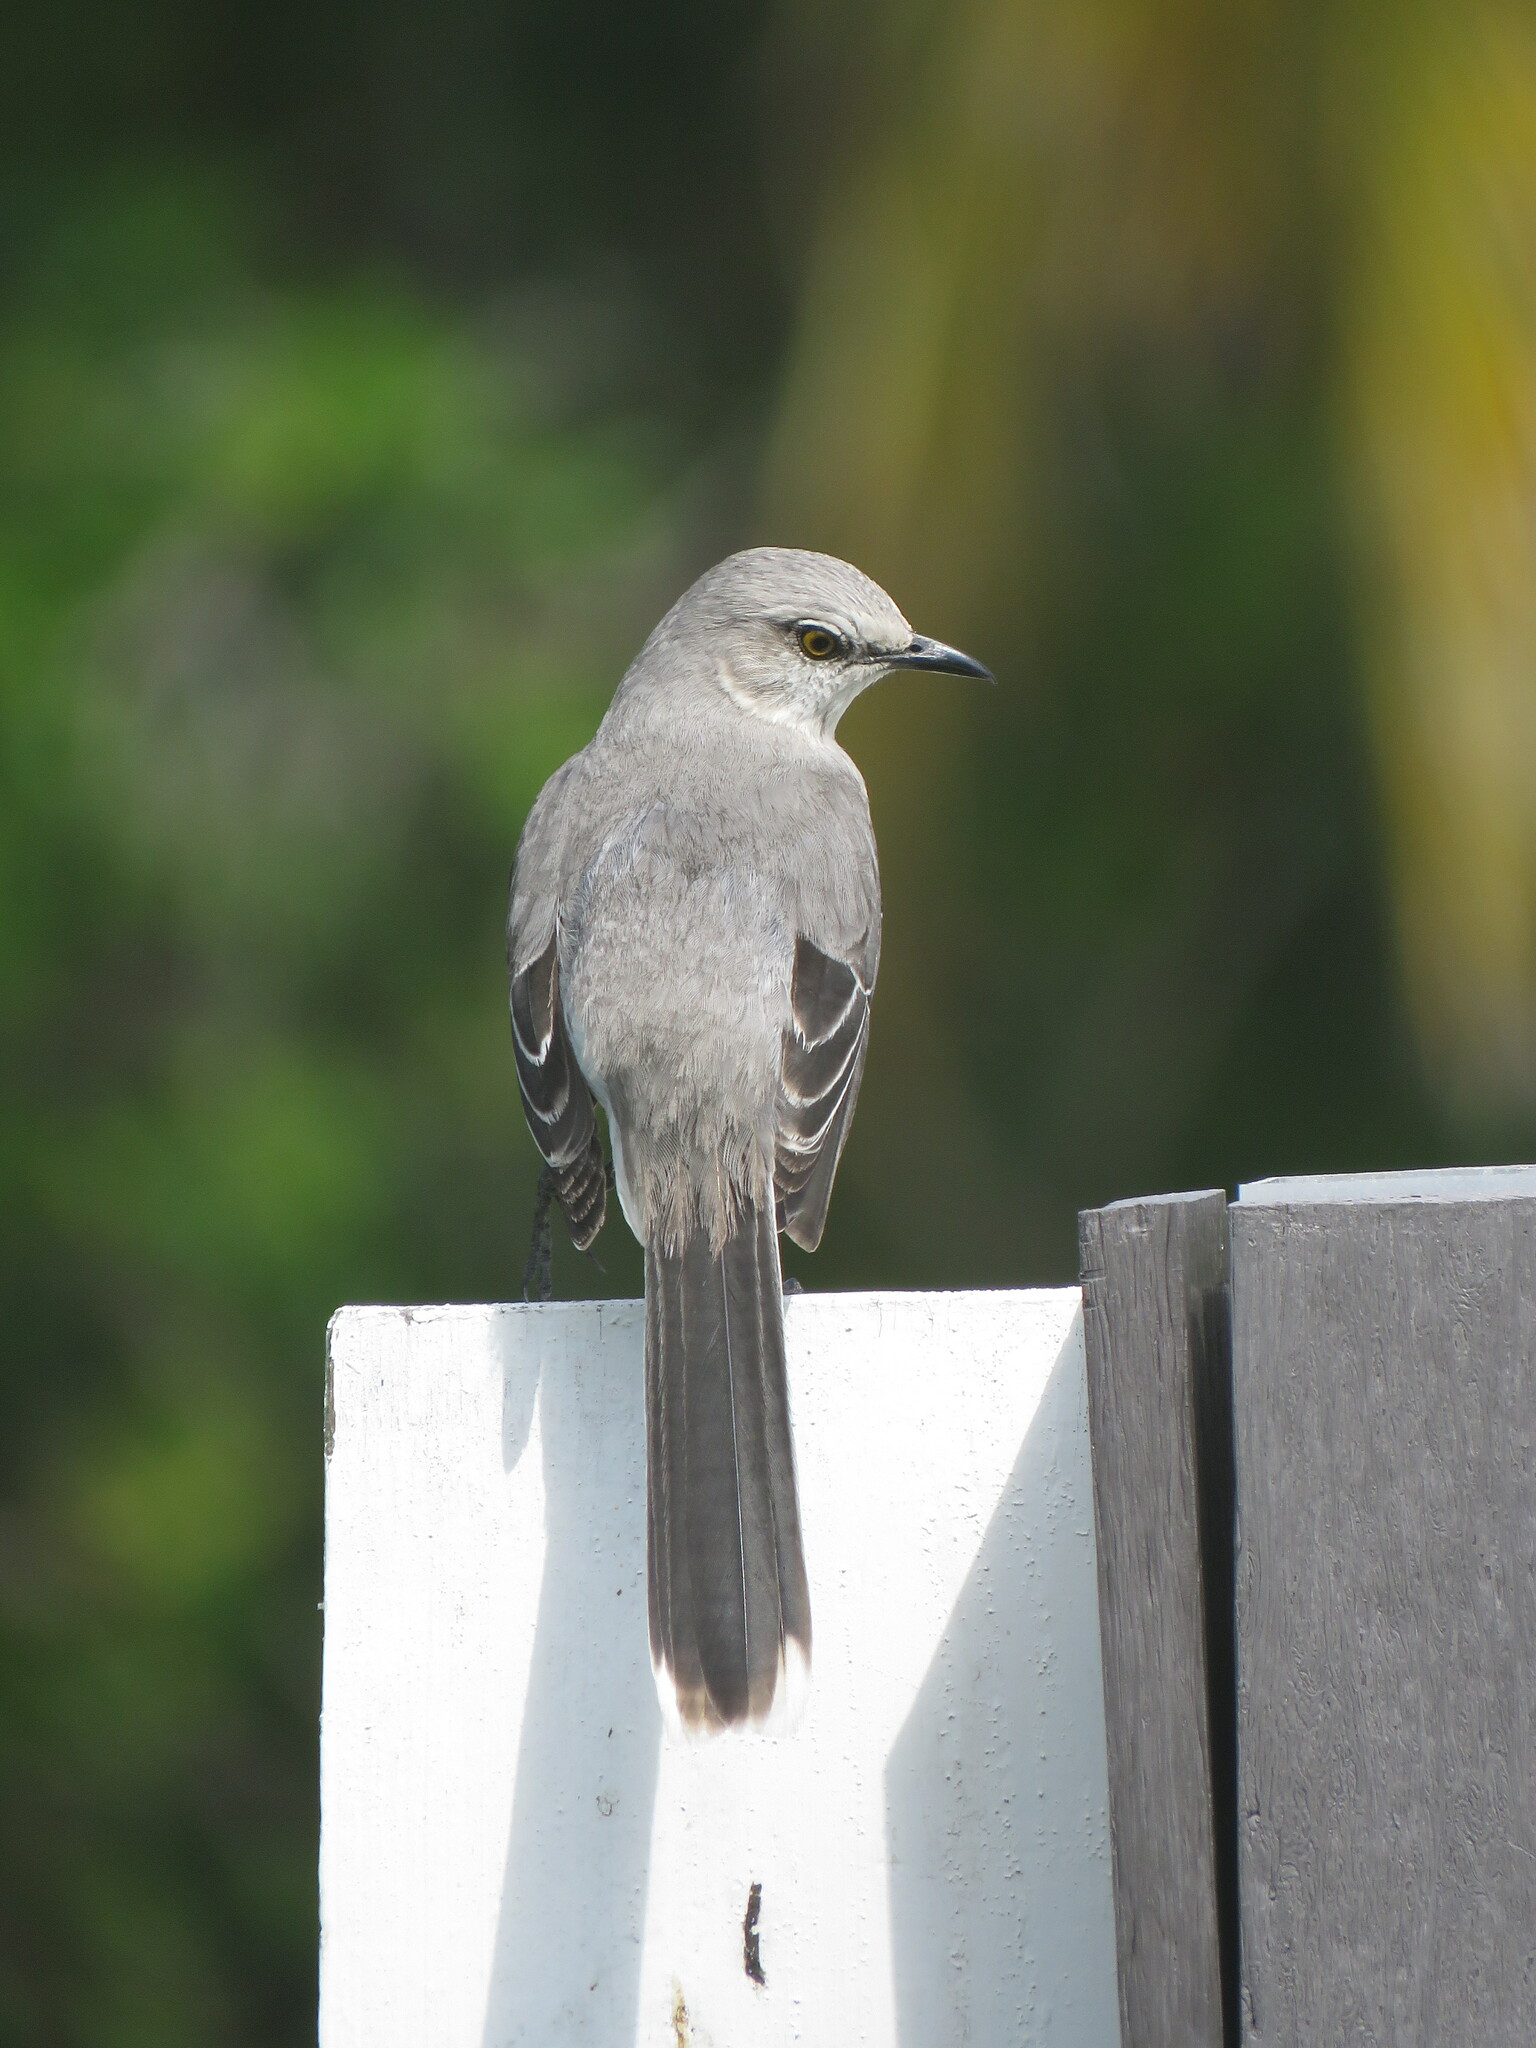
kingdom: Animalia
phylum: Chordata
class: Aves
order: Passeriformes
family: Mimidae
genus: Mimus
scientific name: Mimus gilvus
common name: Tropical mockingbird
